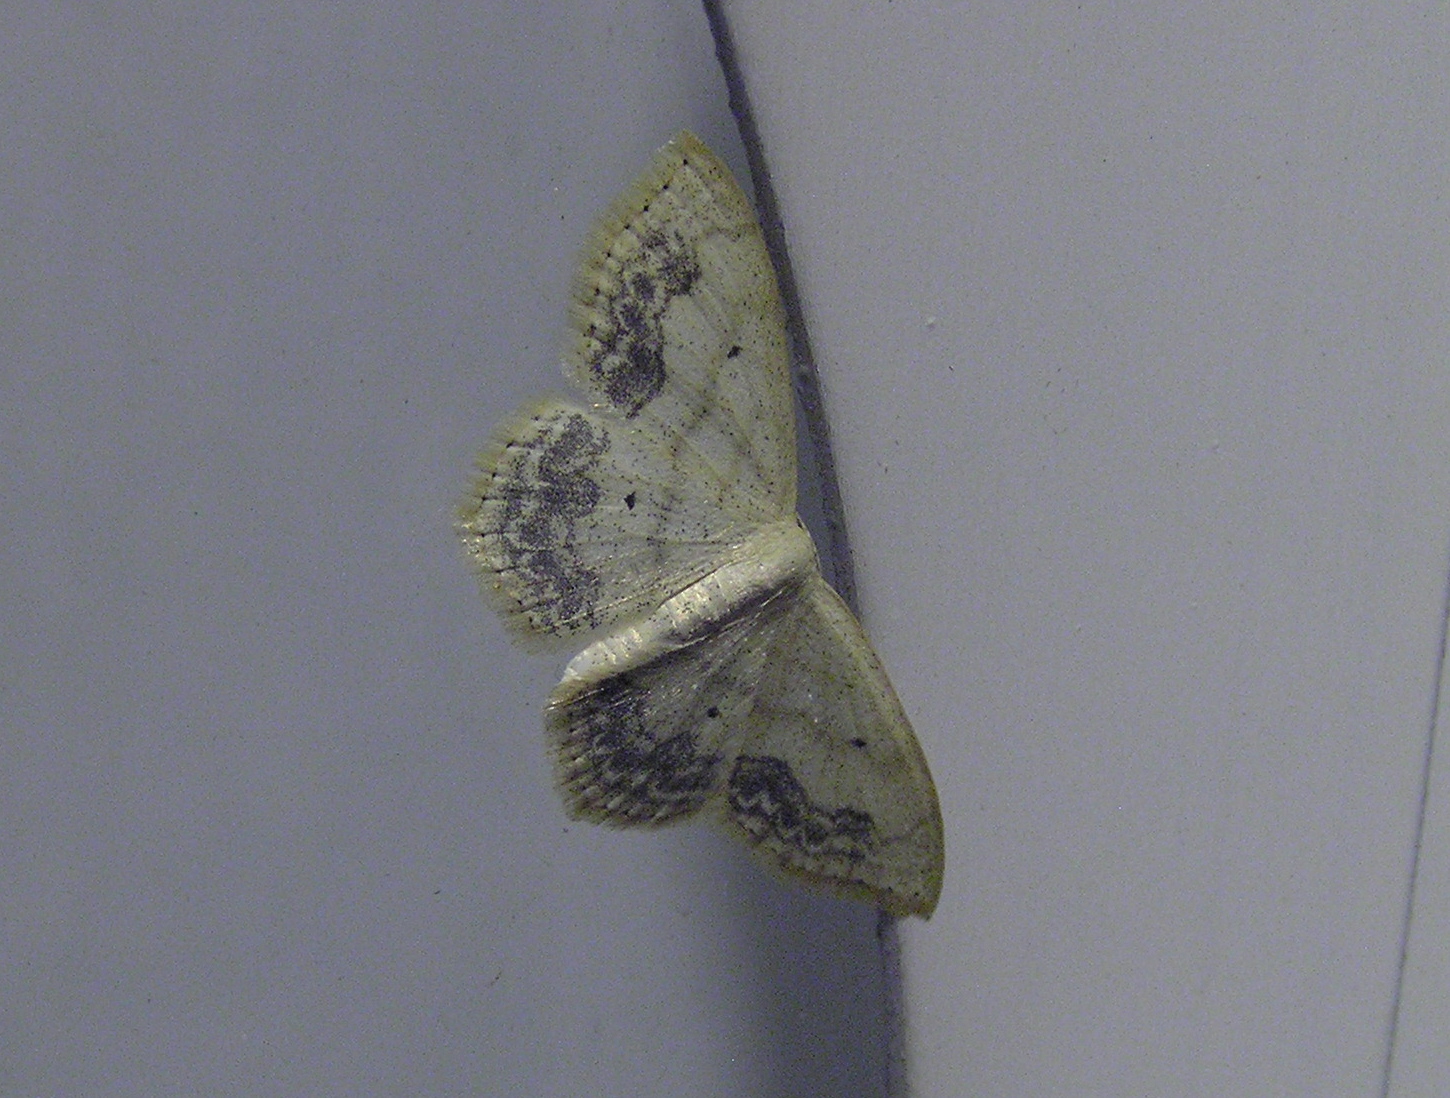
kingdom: Animalia
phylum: Arthropoda
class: Insecta
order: Lepidoptera
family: Geometridae
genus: Scopula
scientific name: Scopula limboundata
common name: Large lace border
